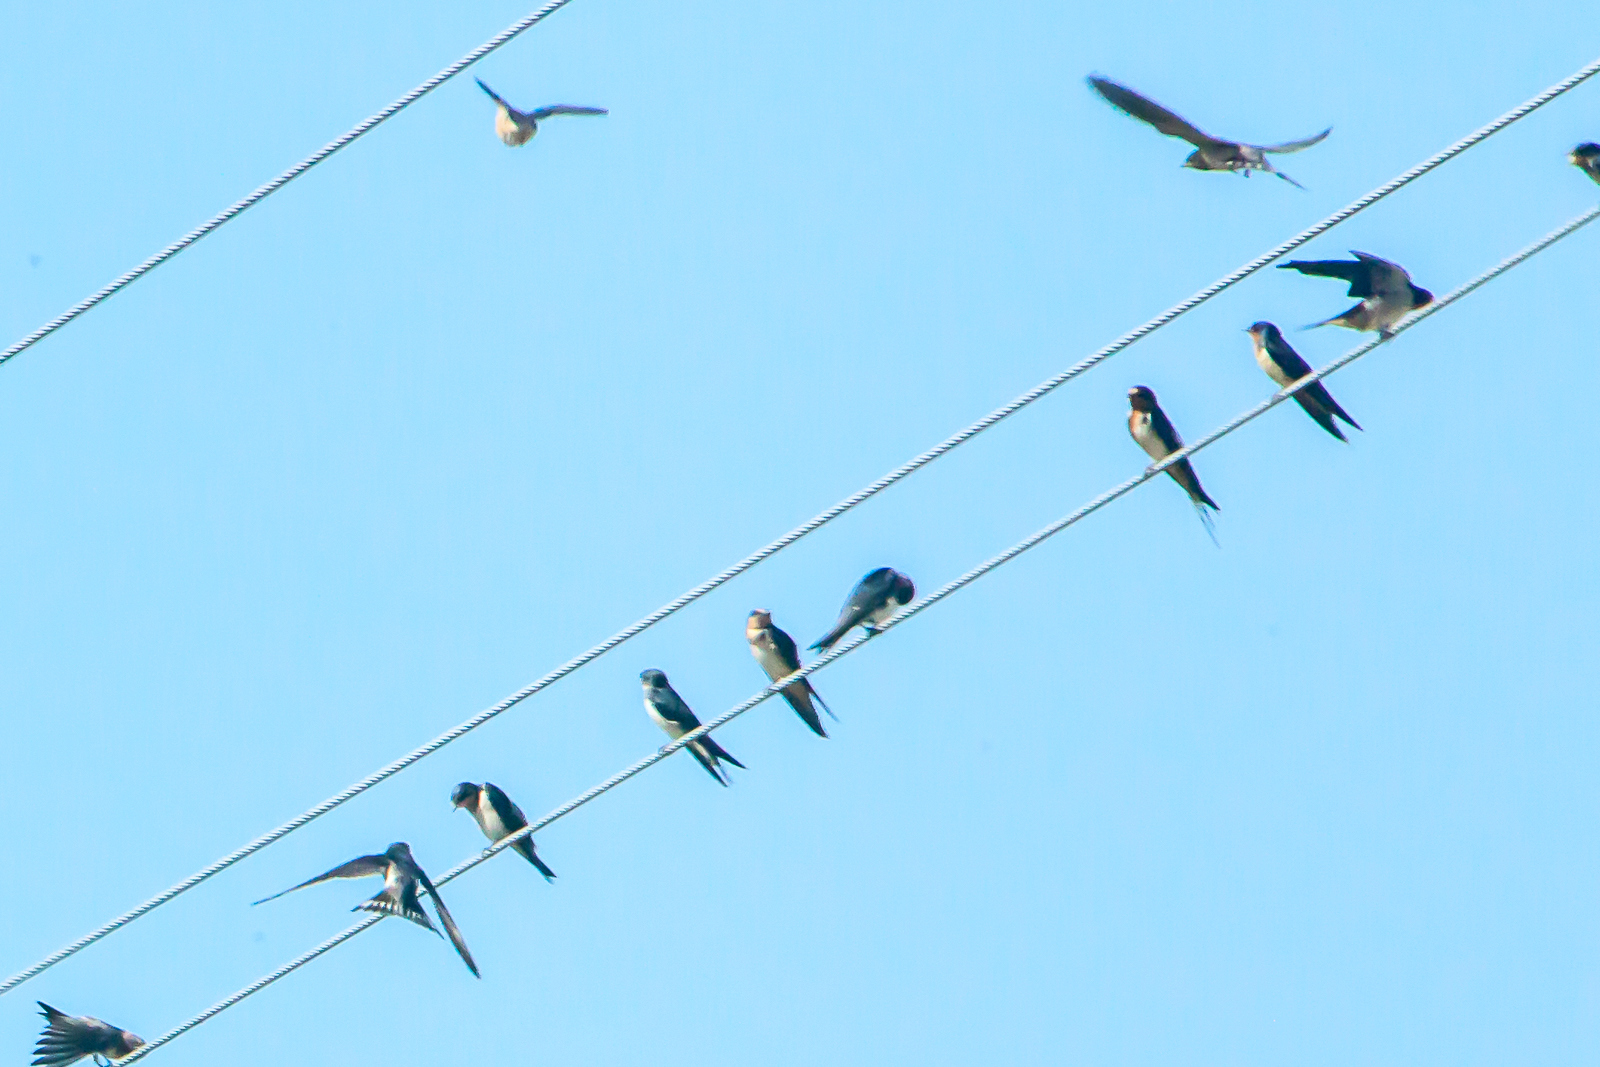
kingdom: Animalia
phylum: Chordata
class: Aves
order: Passeriformes
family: Hirundinidae
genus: Hirundo
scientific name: Hirundo rustica
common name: Barn swallow
